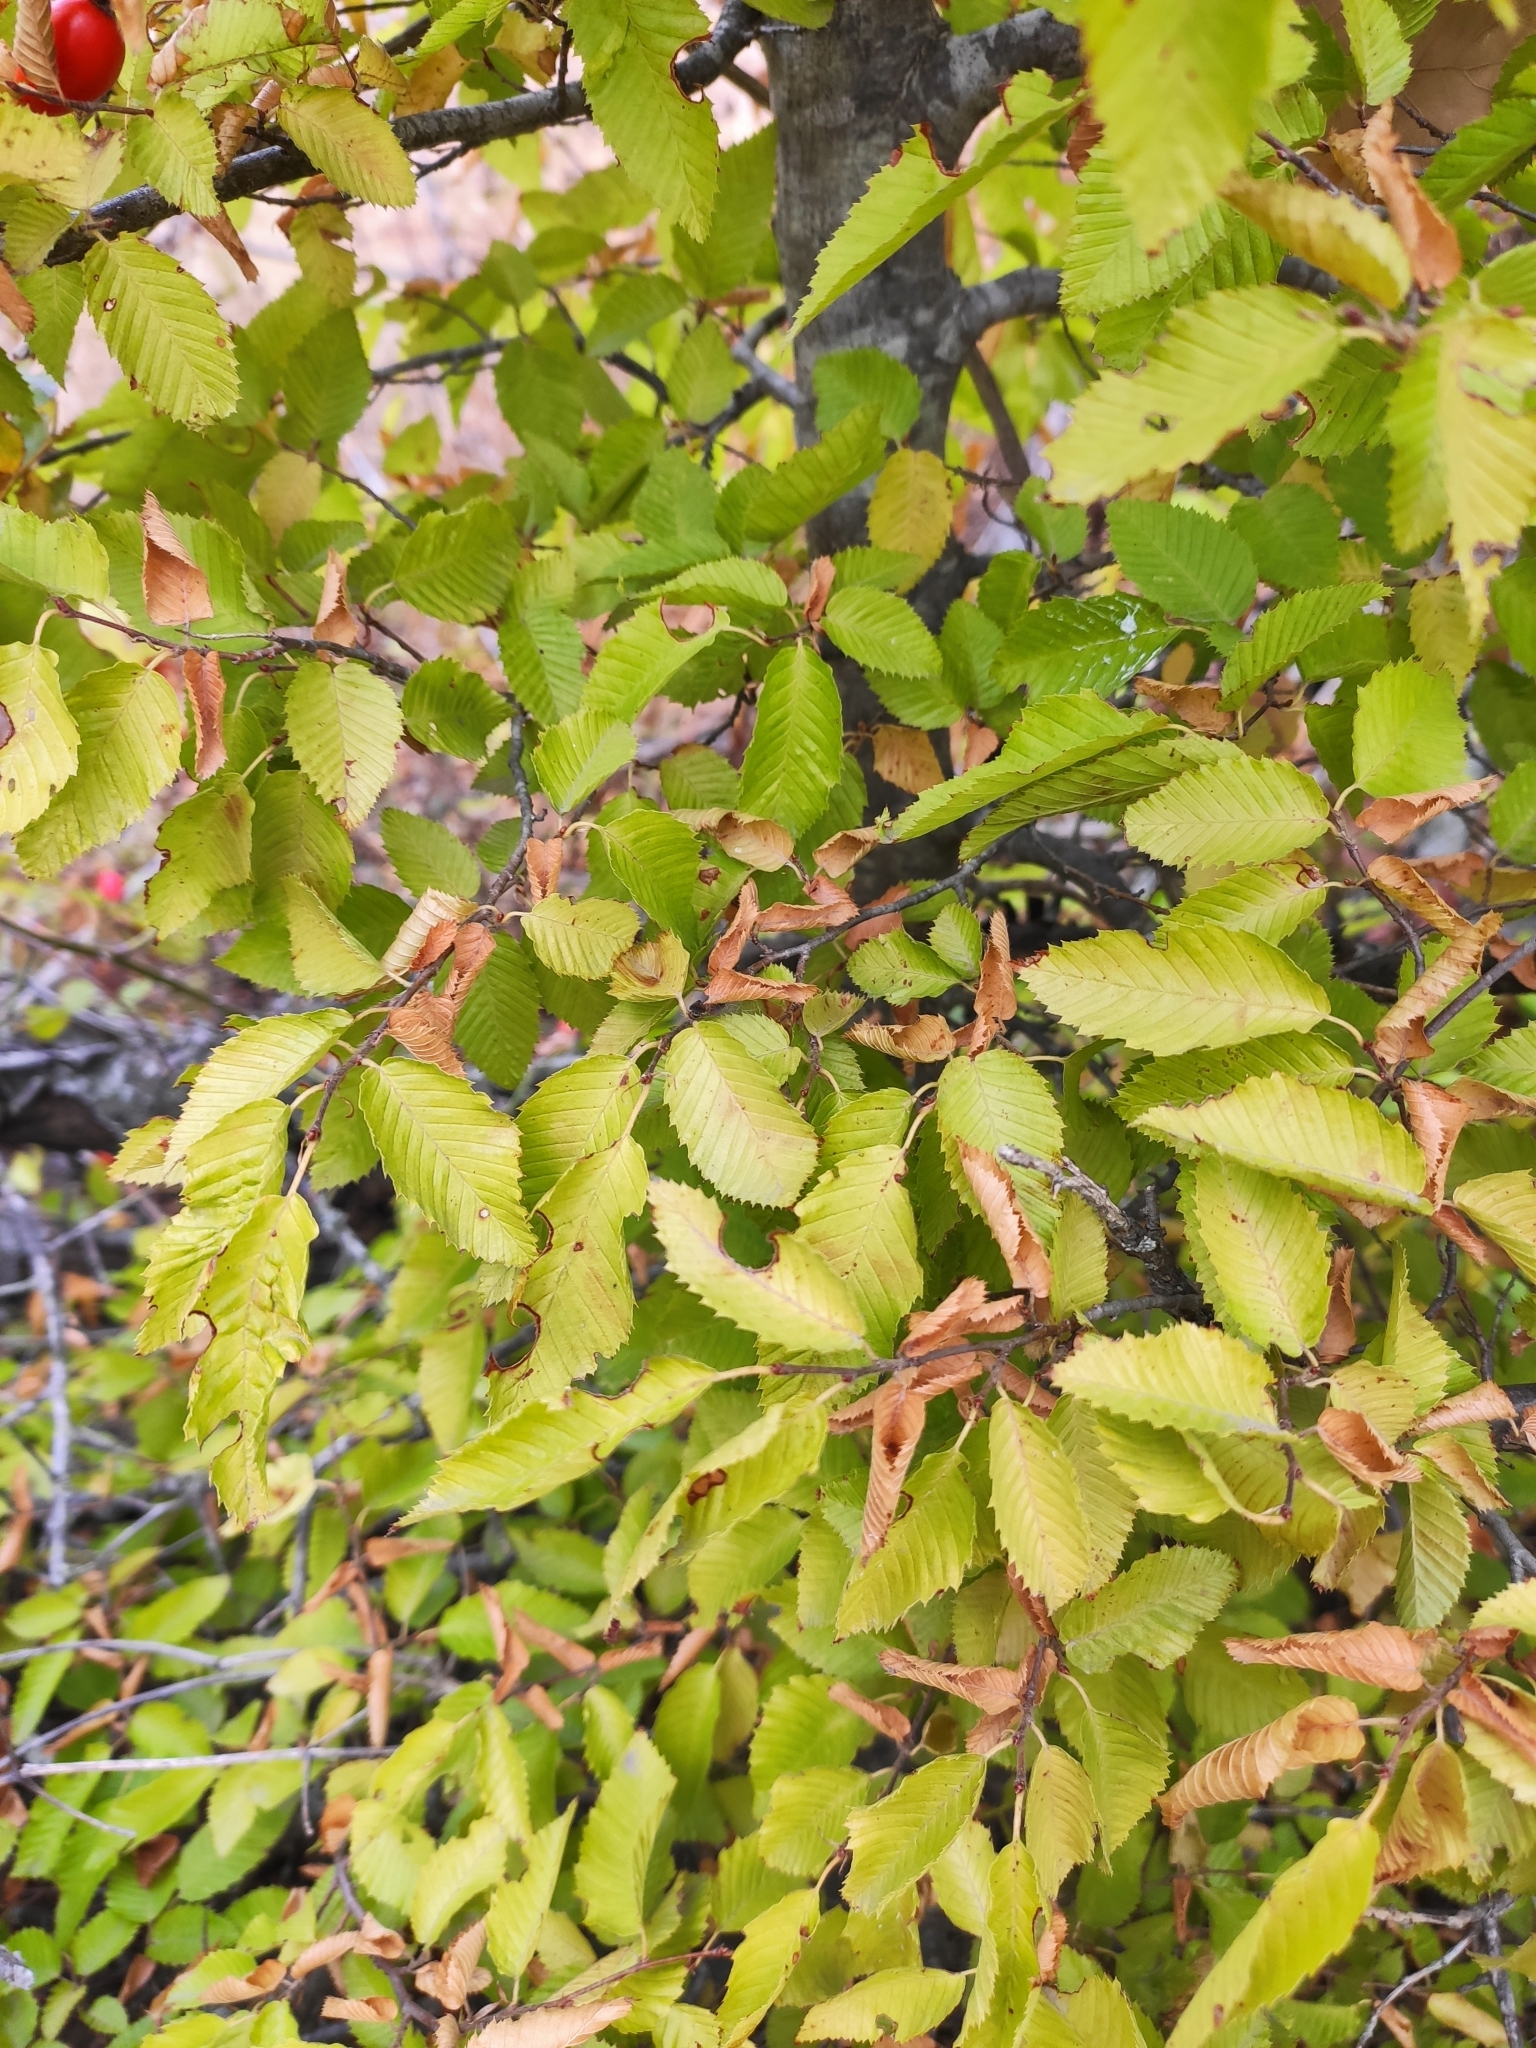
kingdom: Plantae
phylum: Tracheophyta
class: Magnoliopsida
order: Fagales
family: Betulaceae
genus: Carpinus
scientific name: Carpinus orientalis
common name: Eastern hornbeam
